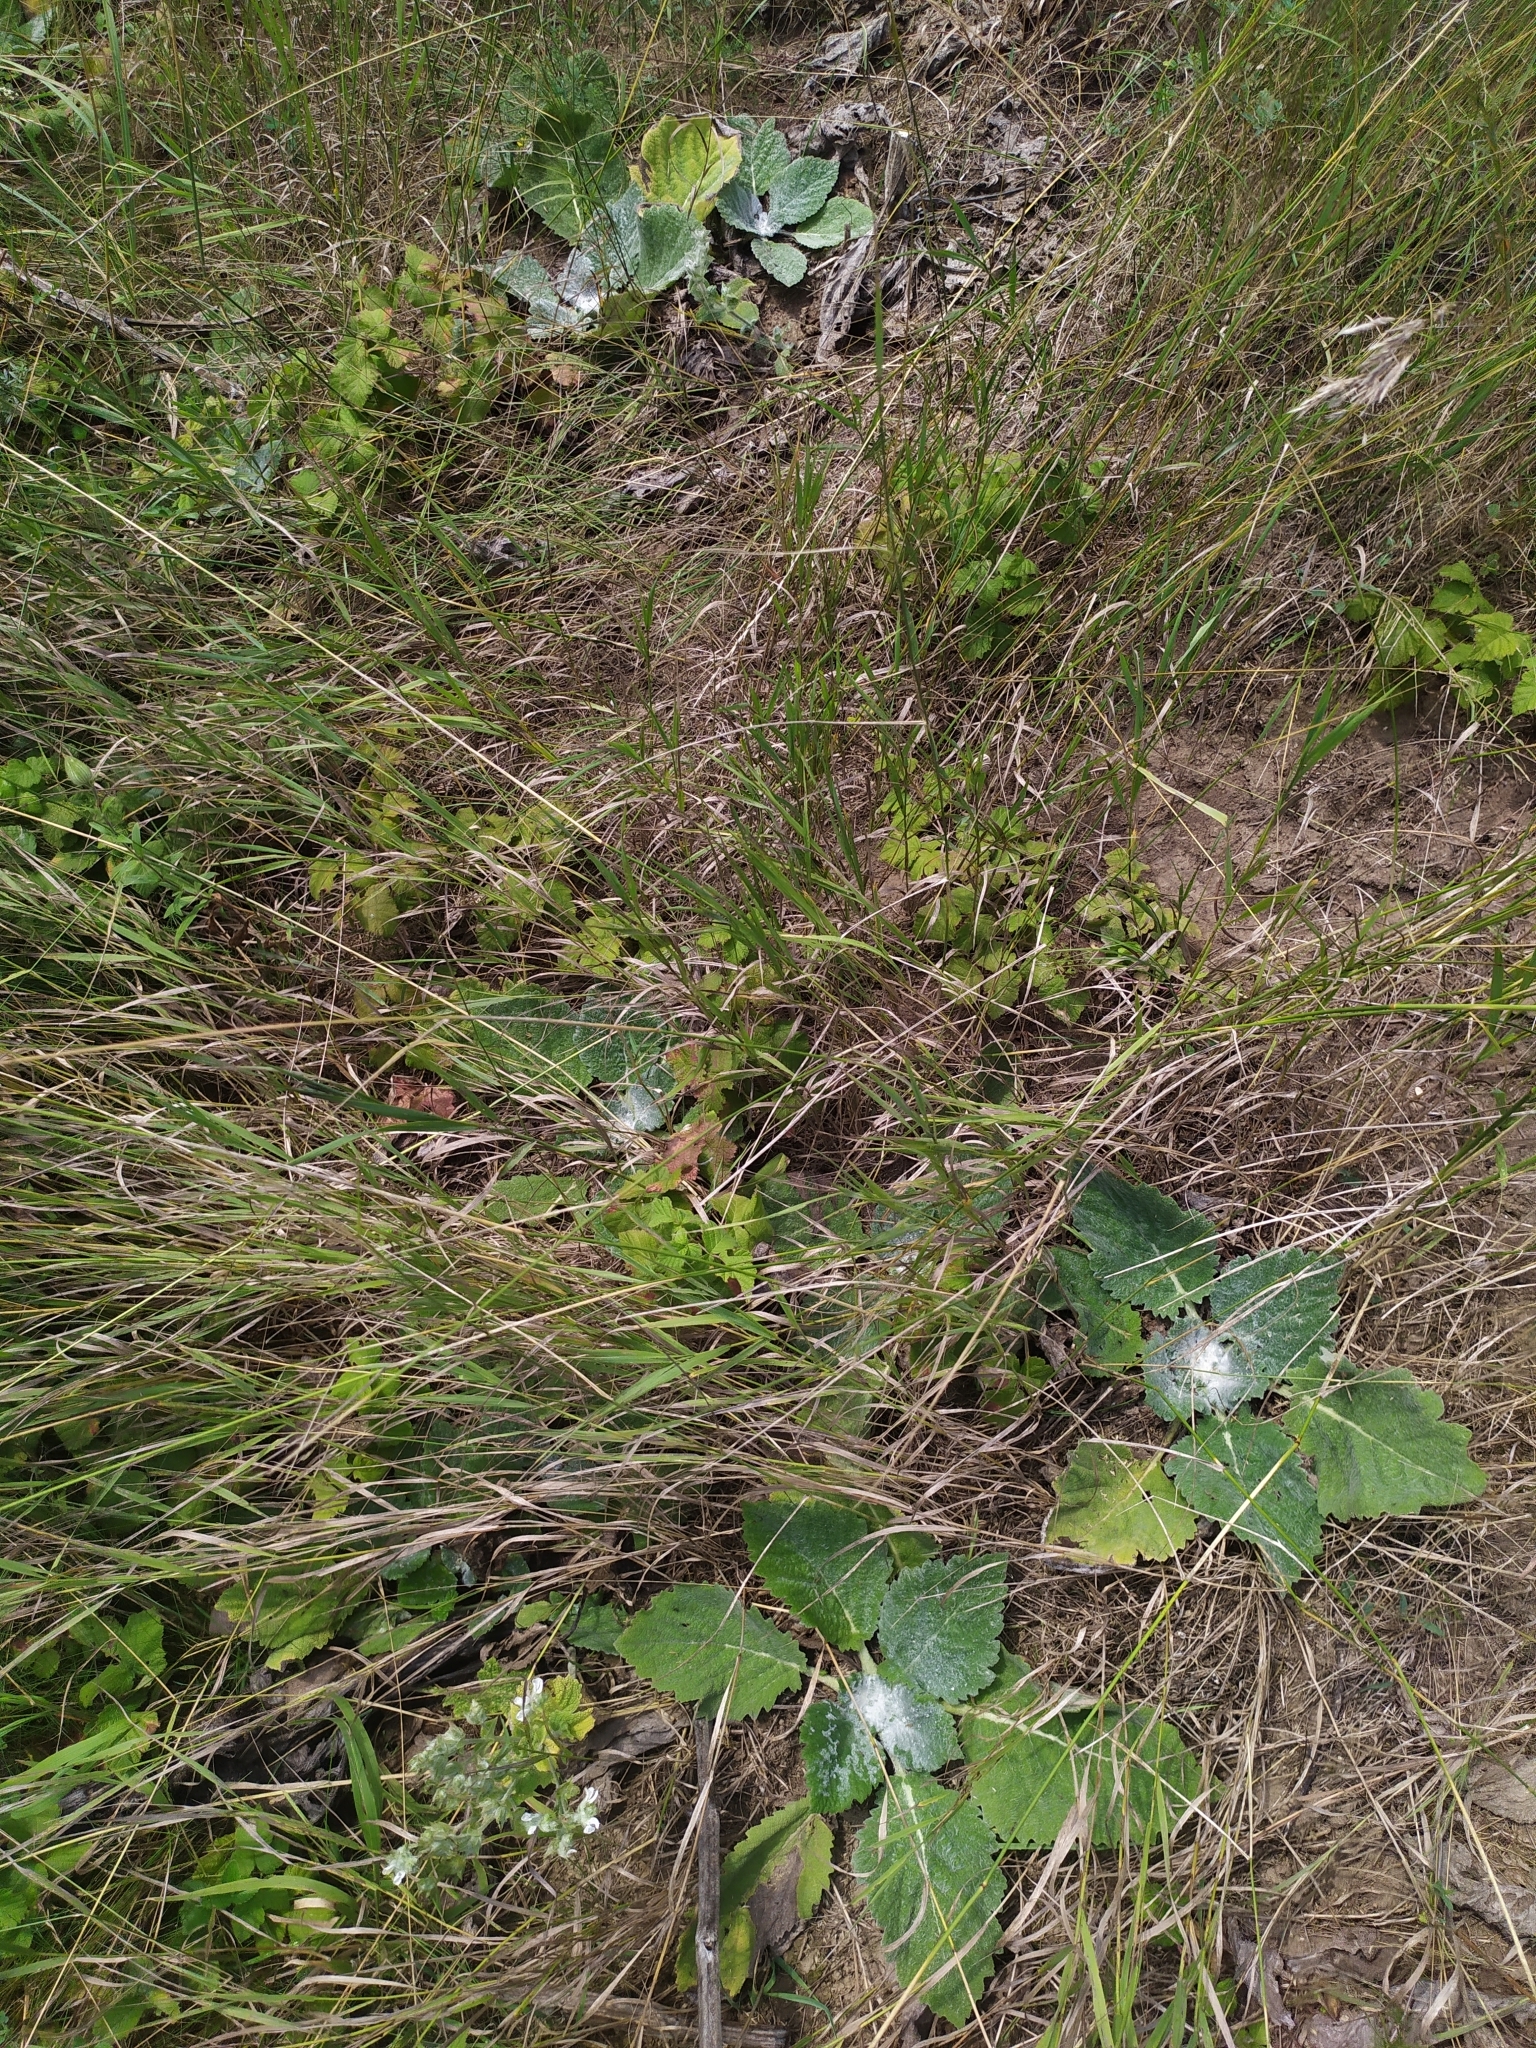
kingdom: Plantae
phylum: Tracheophyta
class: Magnoliopsida
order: Lamiales
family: Lamiaceae
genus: Salvia
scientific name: Salvia aethiopis
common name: Mediterranean sage
